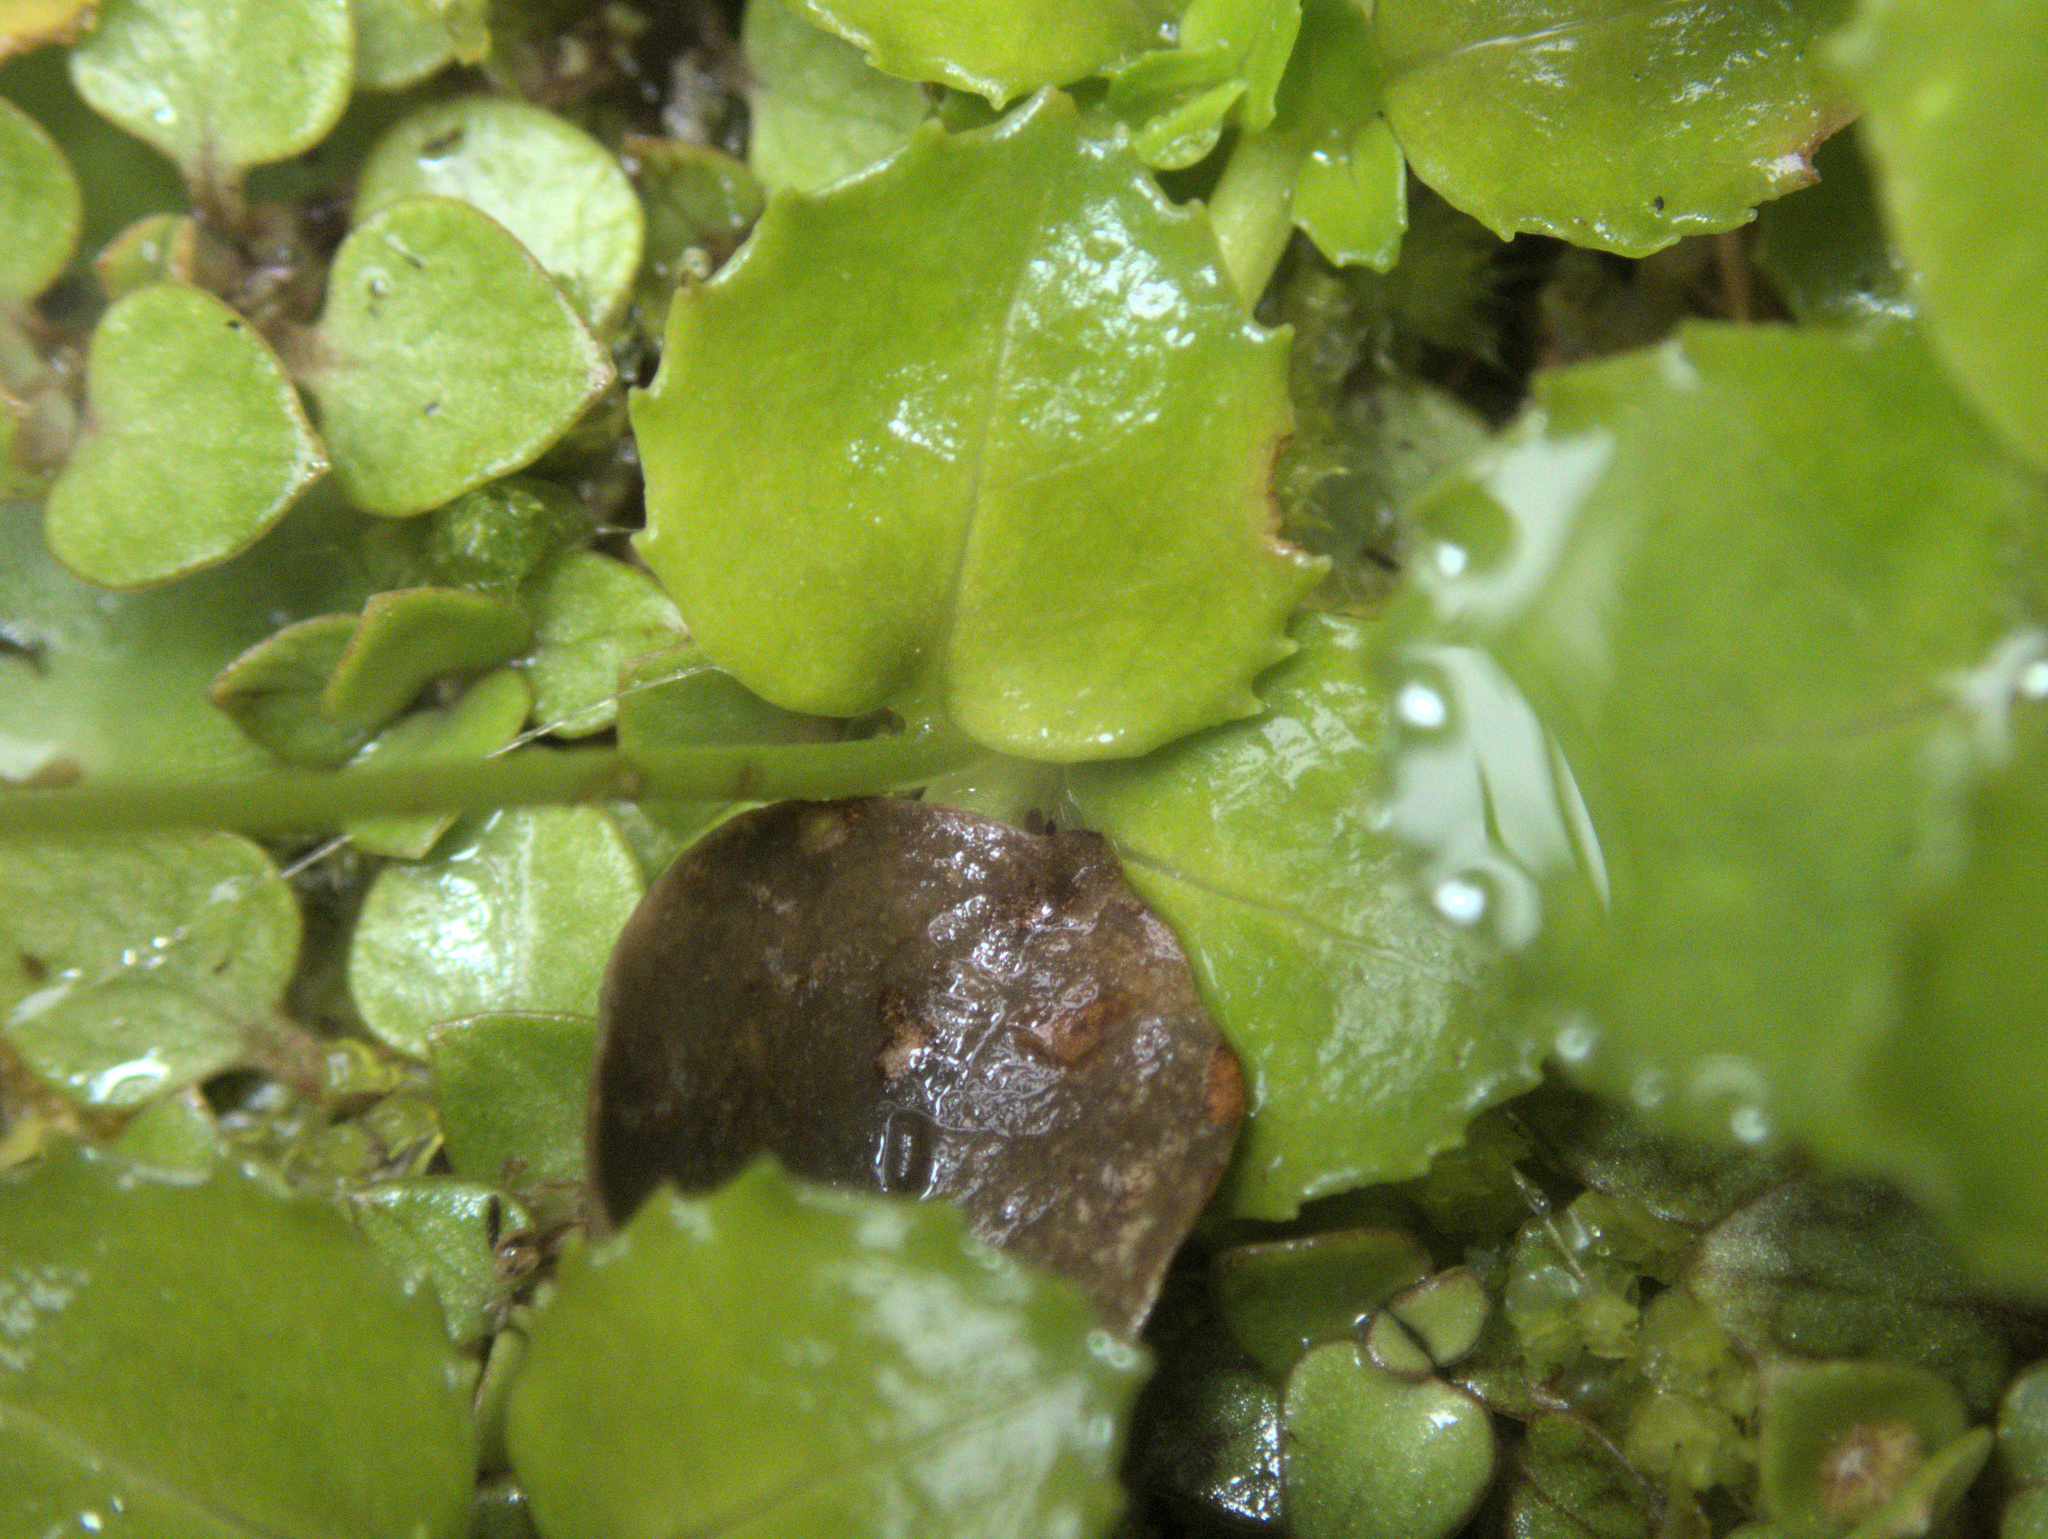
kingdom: Plantae
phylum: Tracheophyta
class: Magnoliopsida
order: Myrtales
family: Onagraceae
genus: Epilobium
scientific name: Epilobium rotundifolium
